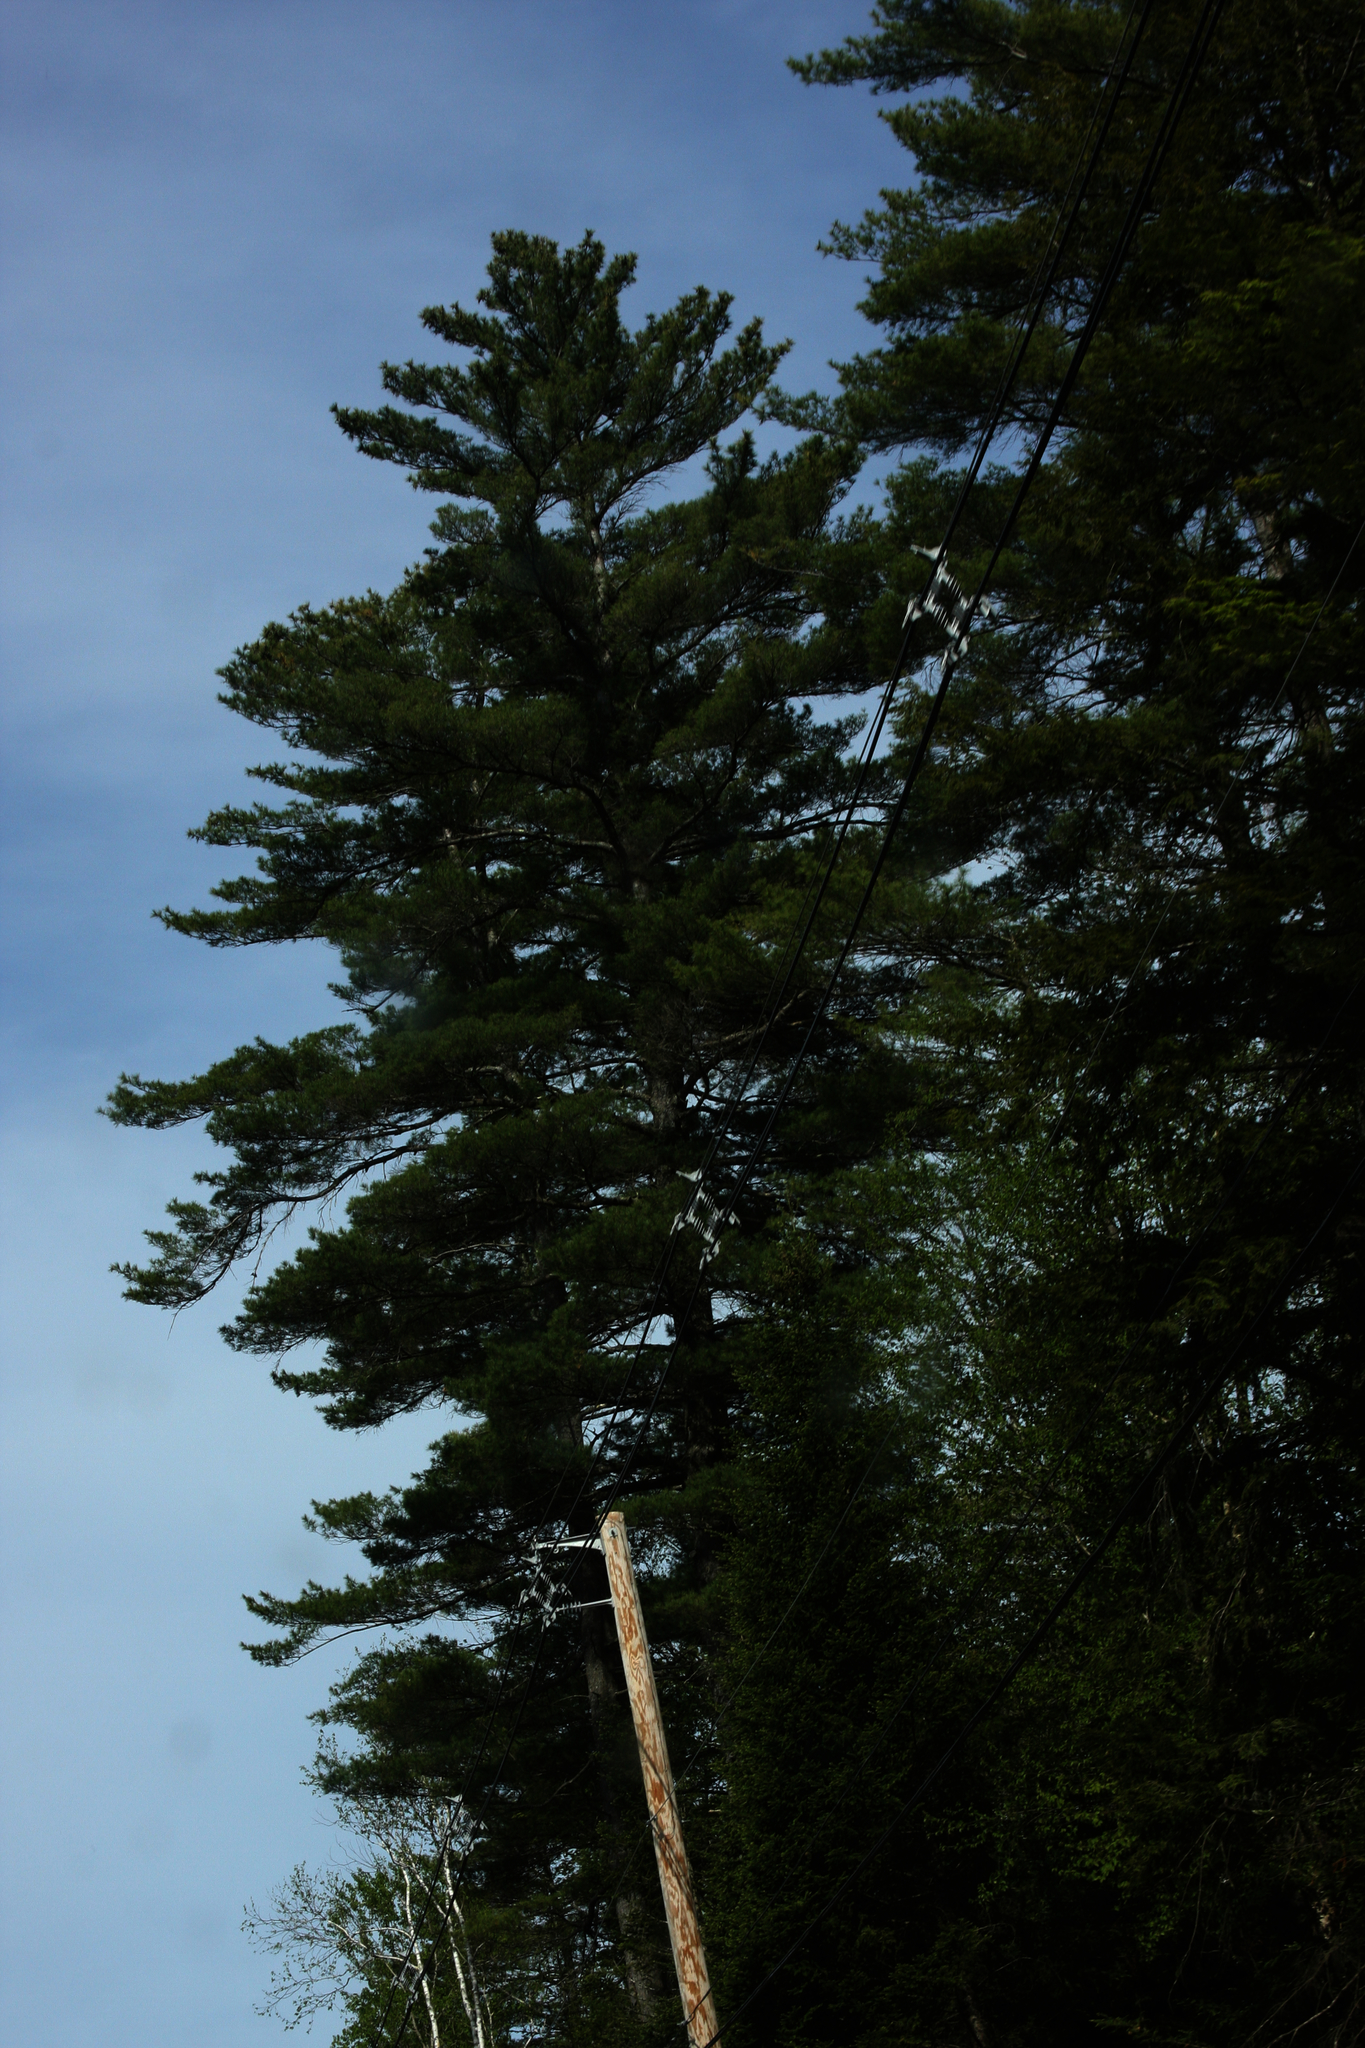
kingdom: Plantae
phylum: Tracheophyta
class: Pinopsida
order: Pinales
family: Pinaceae
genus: Pinus
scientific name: Pinus strobus
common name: Weymouth pine
